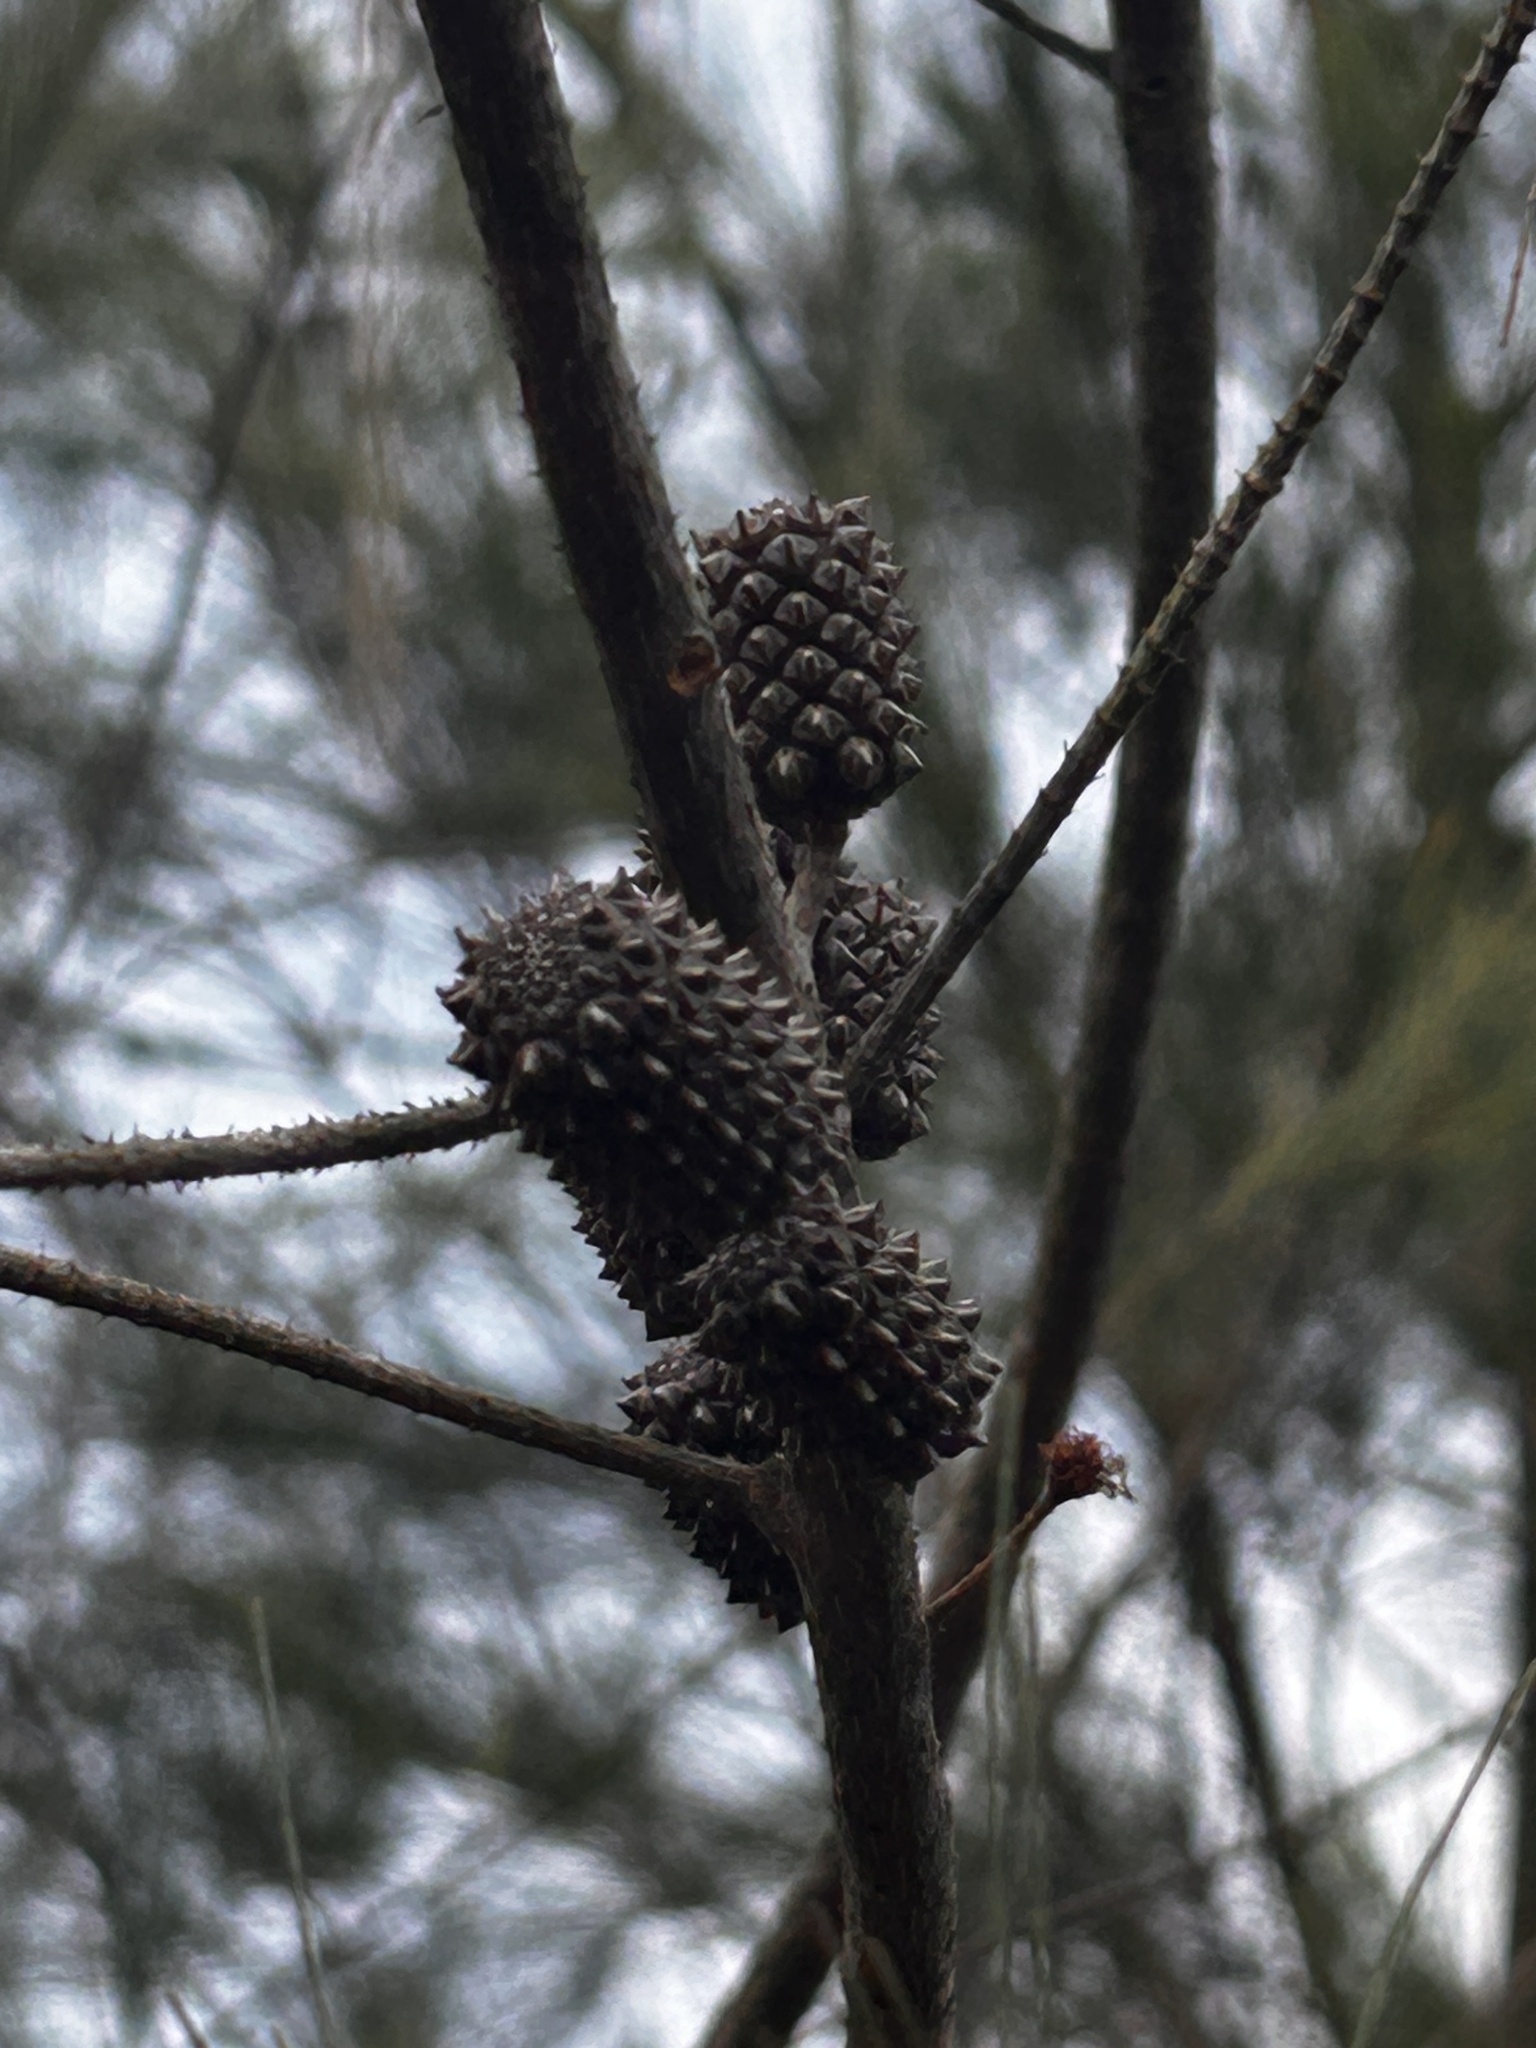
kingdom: Plantae
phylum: Tracheophyta
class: Magnoliopsida
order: Fagales
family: Casuarinaceae
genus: Casuarina
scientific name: Casuarina equisetifolia
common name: Beach sheoak
